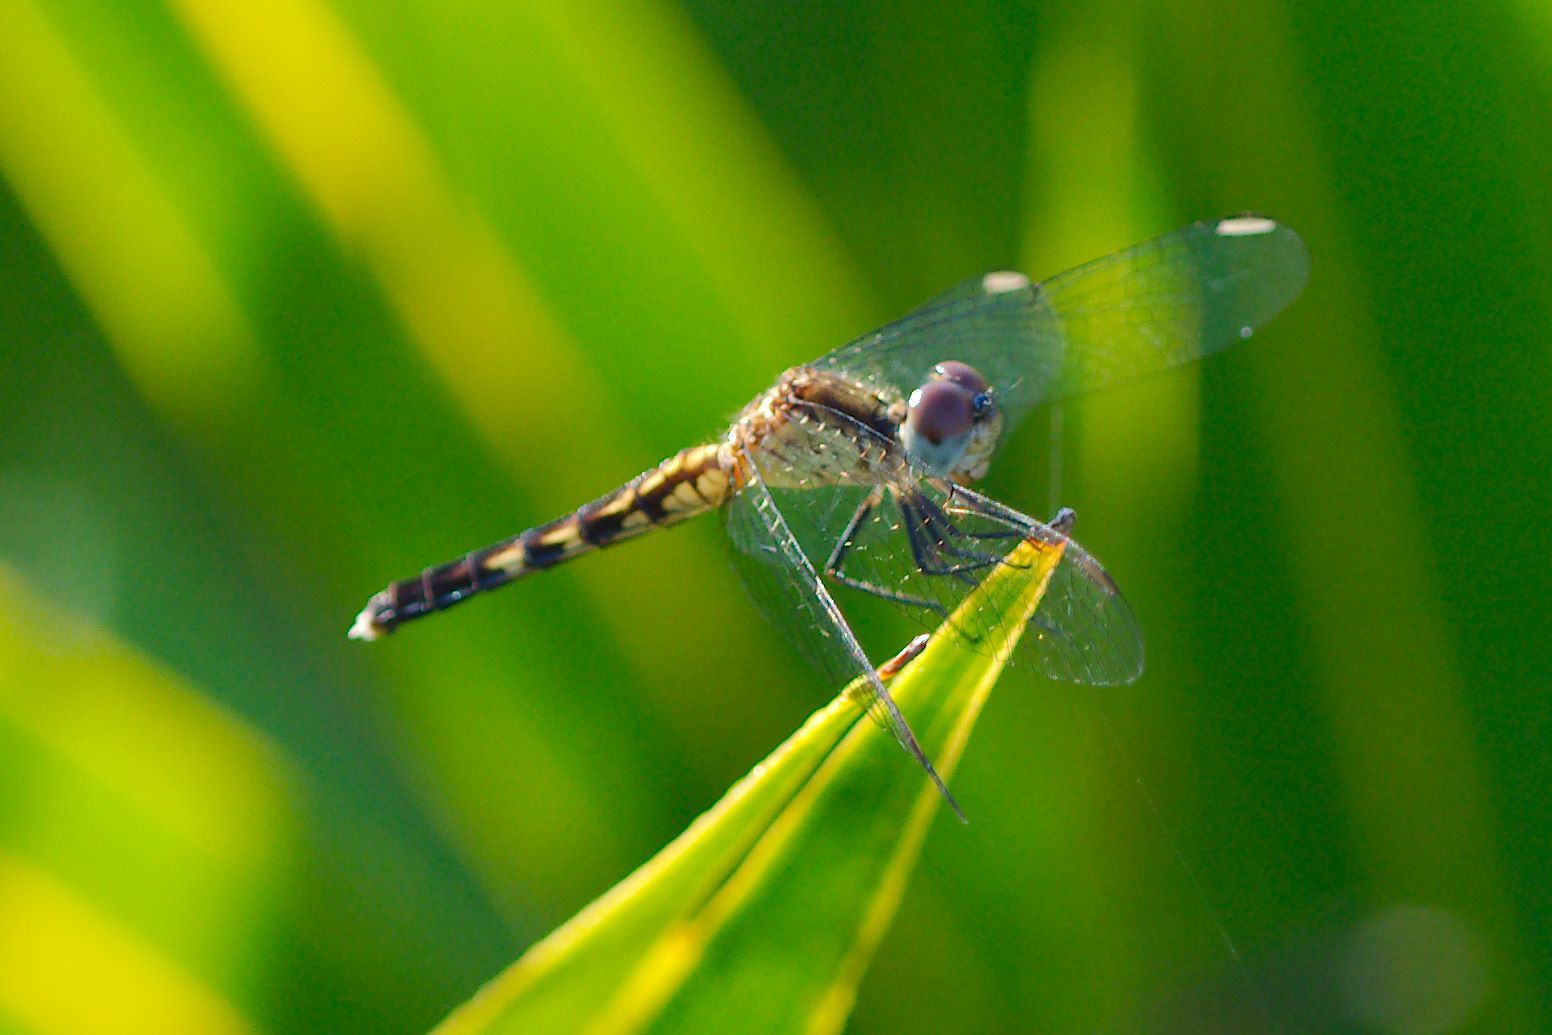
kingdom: Animalia
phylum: Arthropoda
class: Insecta
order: Odonata
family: Libellulidae
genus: Erythrodiplax
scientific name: Erythrodiplax minuscula
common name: Little blue dragonlet
